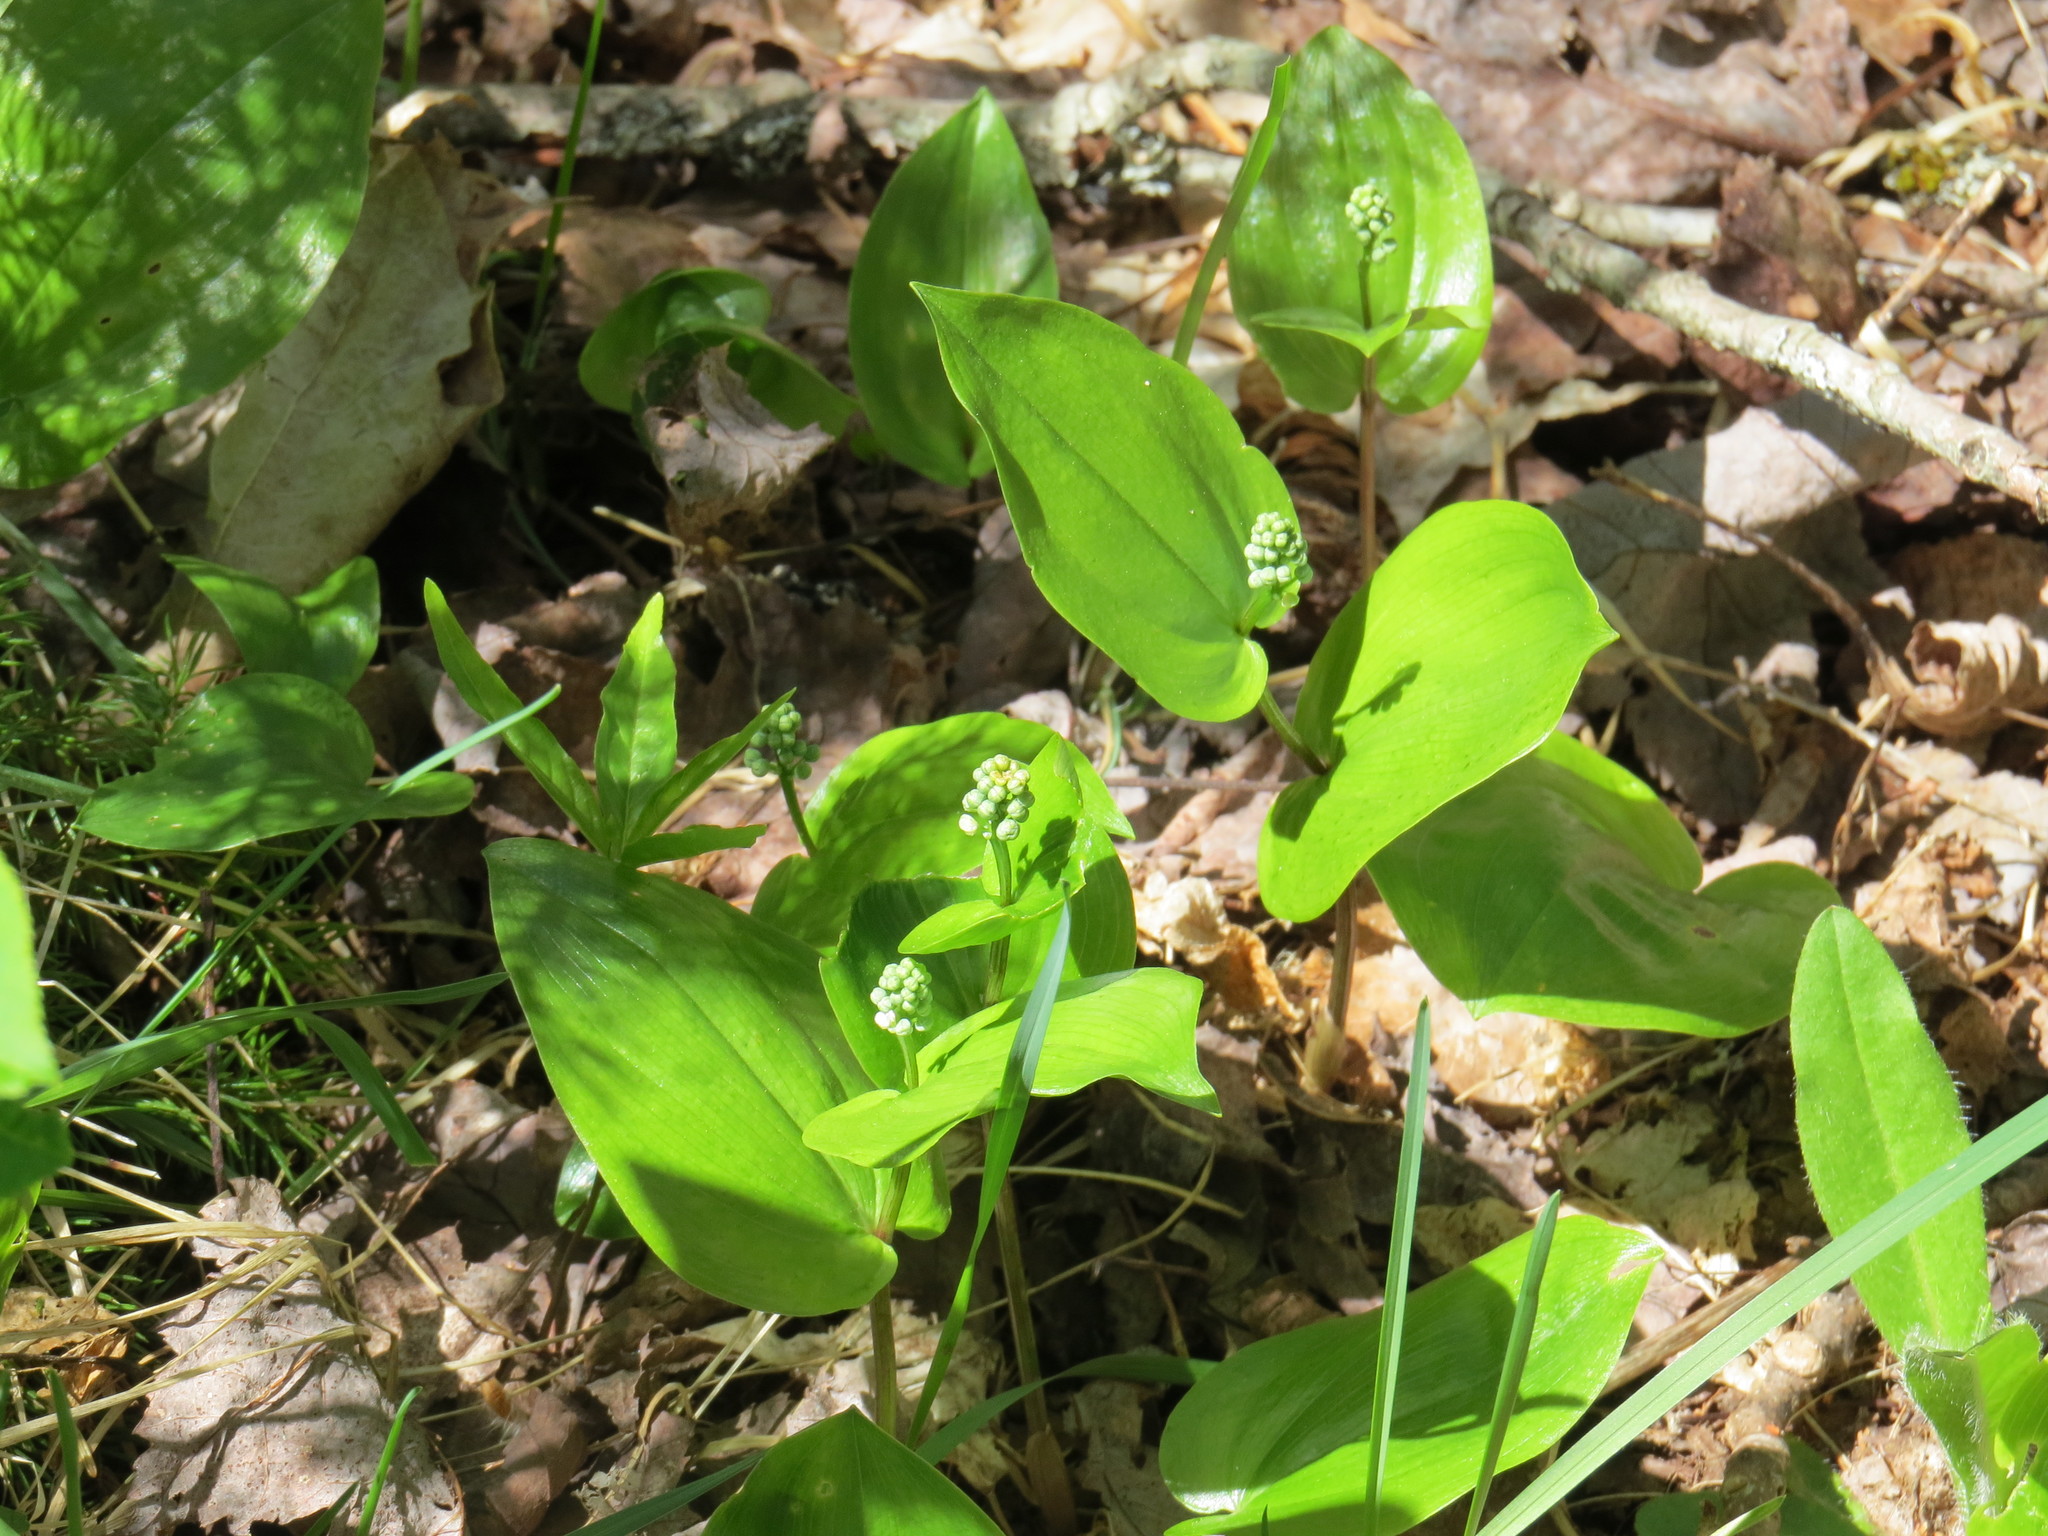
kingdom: Plantae
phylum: Tracheophyta
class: Liliopsida
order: Asparagales
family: Asparagaceae
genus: Maianthemum
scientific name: Maianthemum canadense
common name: False lily-of-the-valley
